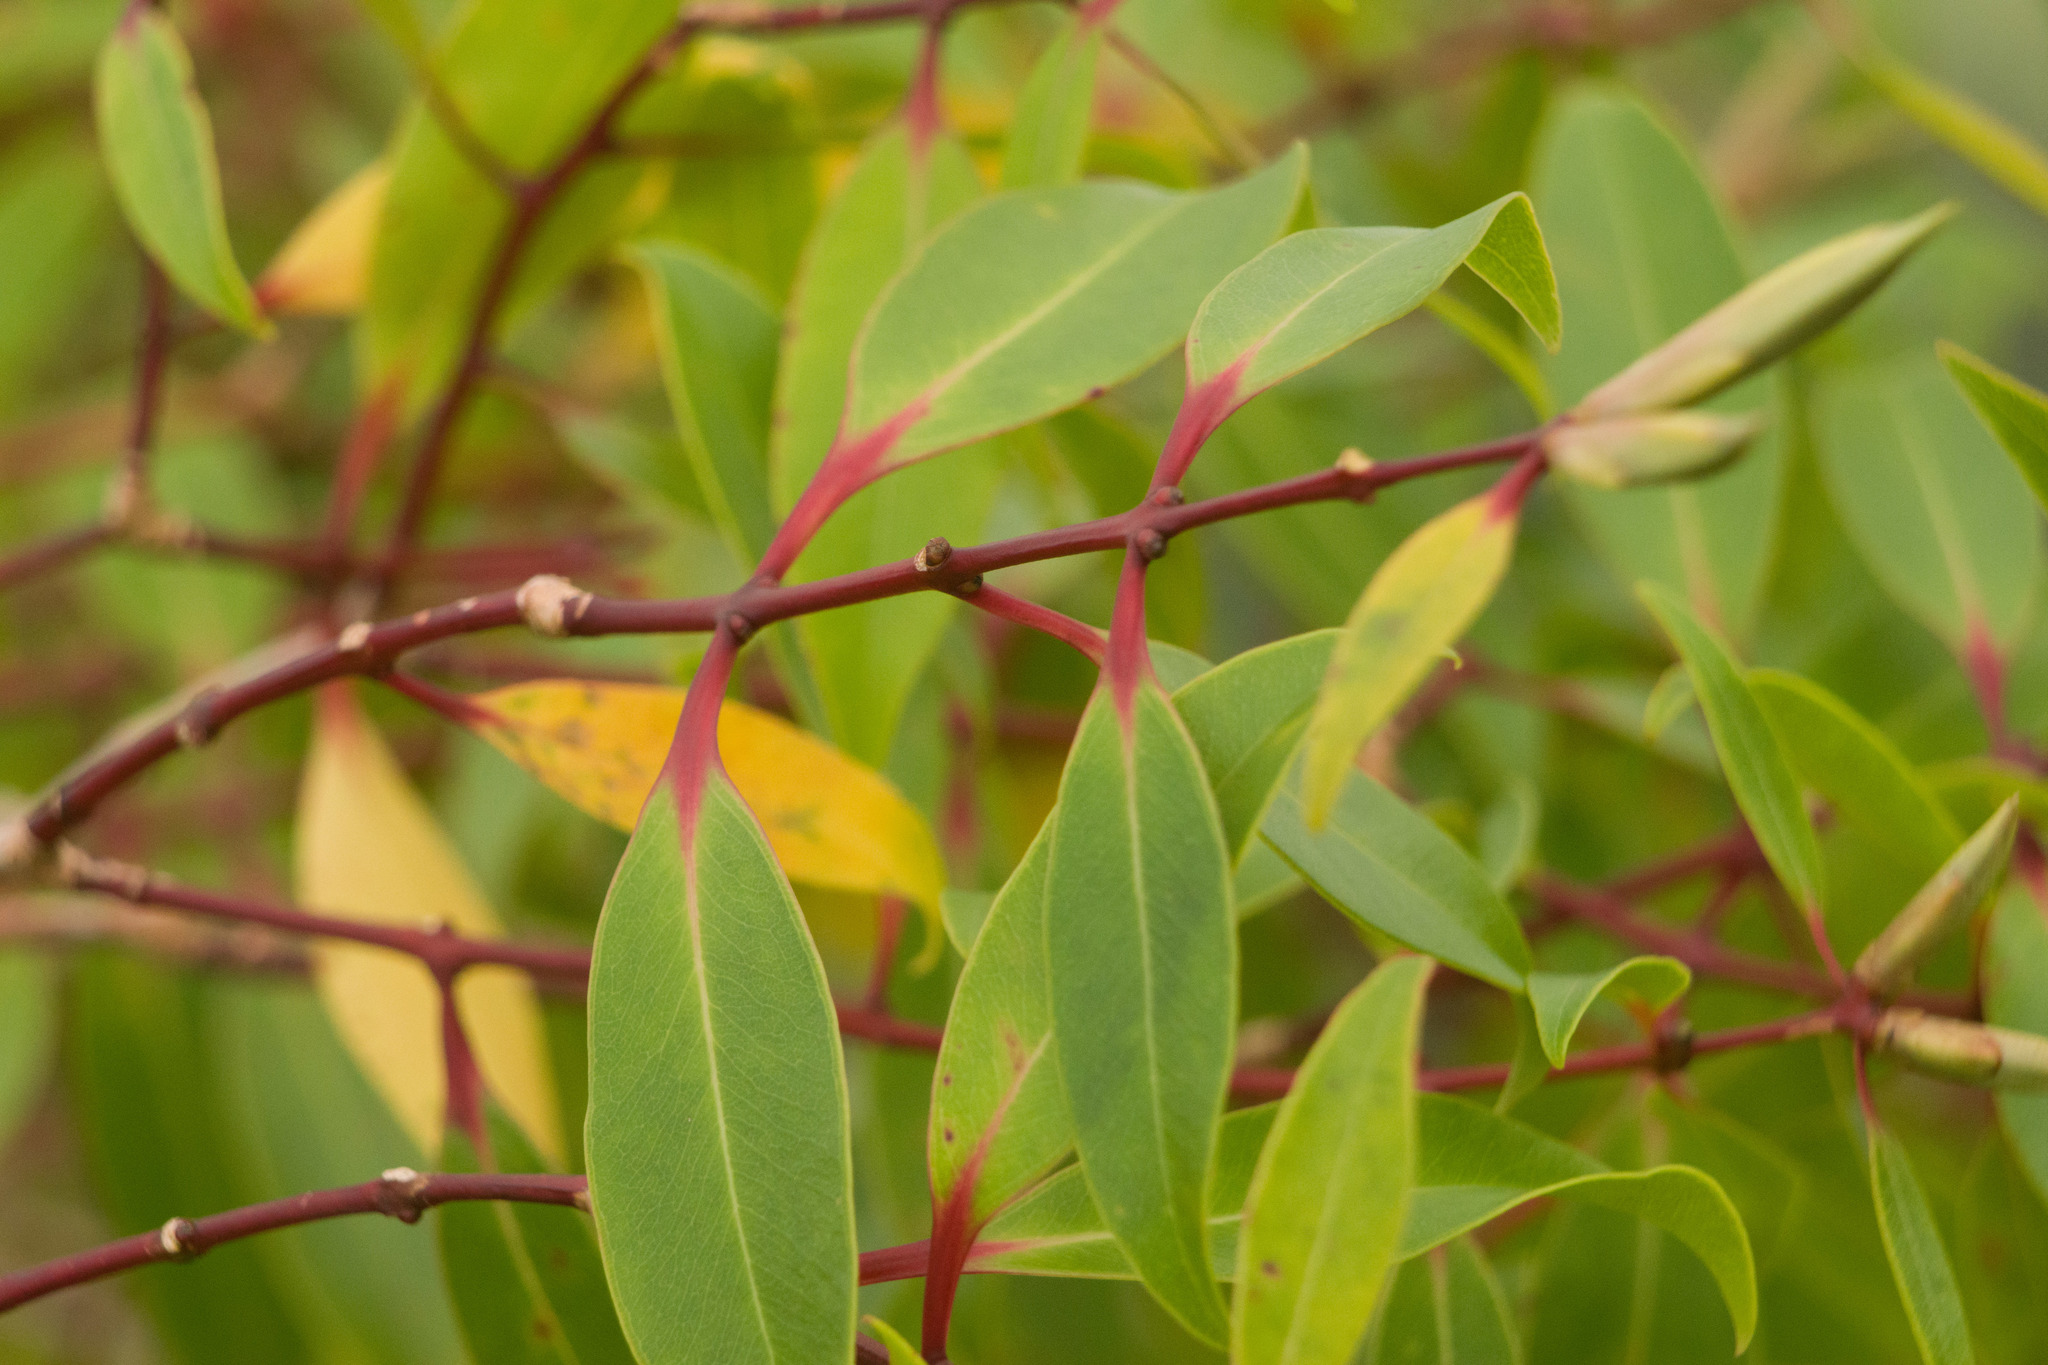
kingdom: Plantae
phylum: Tracheophyta
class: Magnoliopsida
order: Myrtales
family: Myrtaceae
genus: Metrosideros
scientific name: Metrosideros tremuloides
